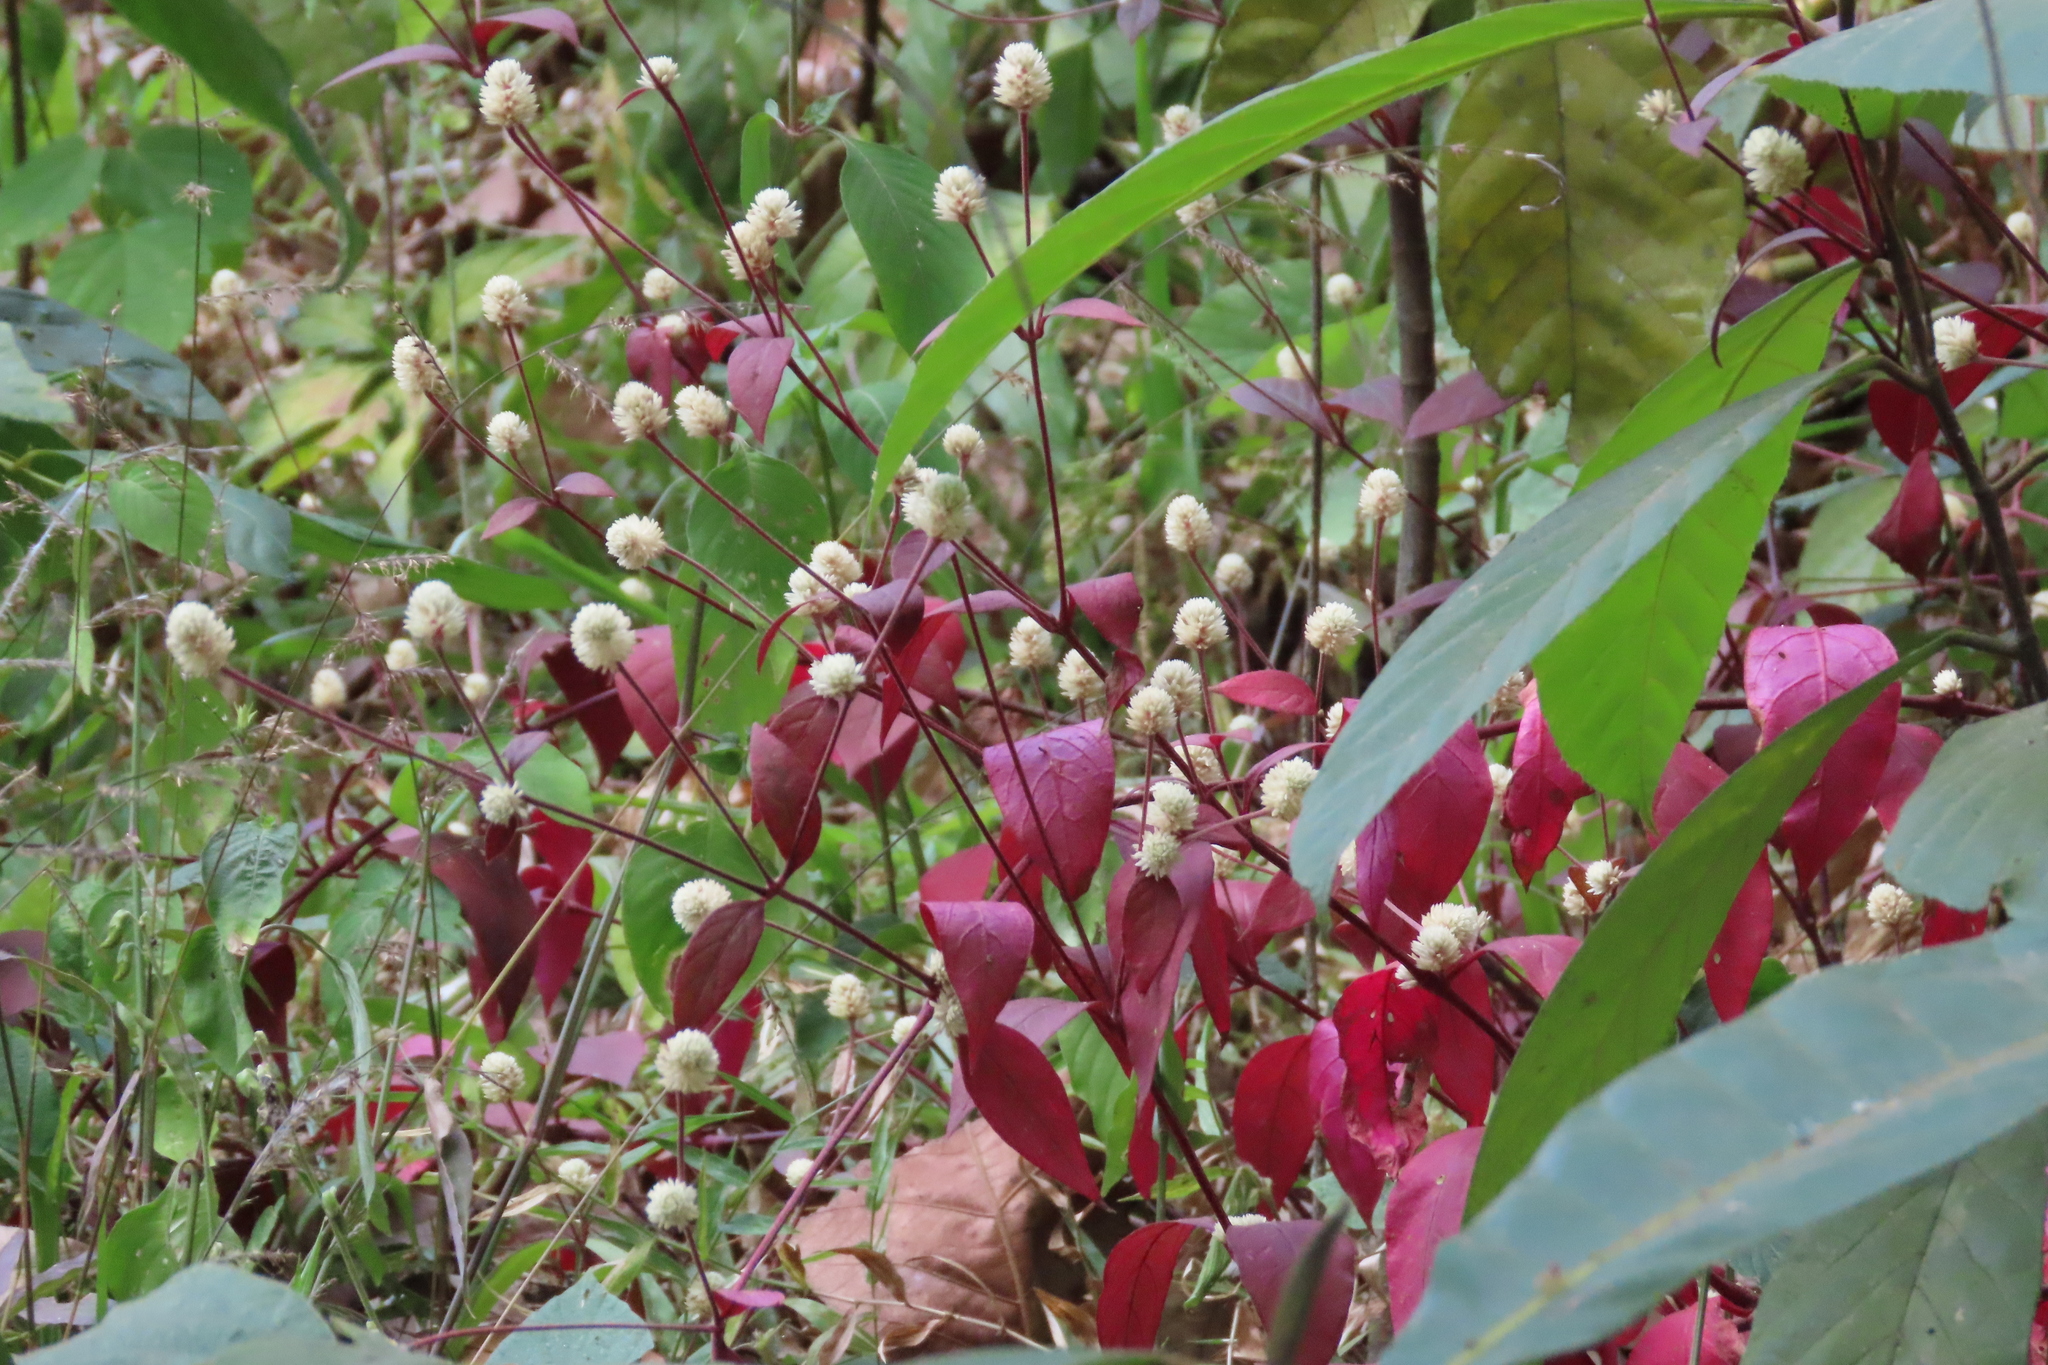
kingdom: Plantae
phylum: Tracheophyta
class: Magnoliopsida
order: Caryophyllales
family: Amaranthaceae
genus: Alternanthera
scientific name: Alternanthera brasiliana
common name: Brazilian joyweed
